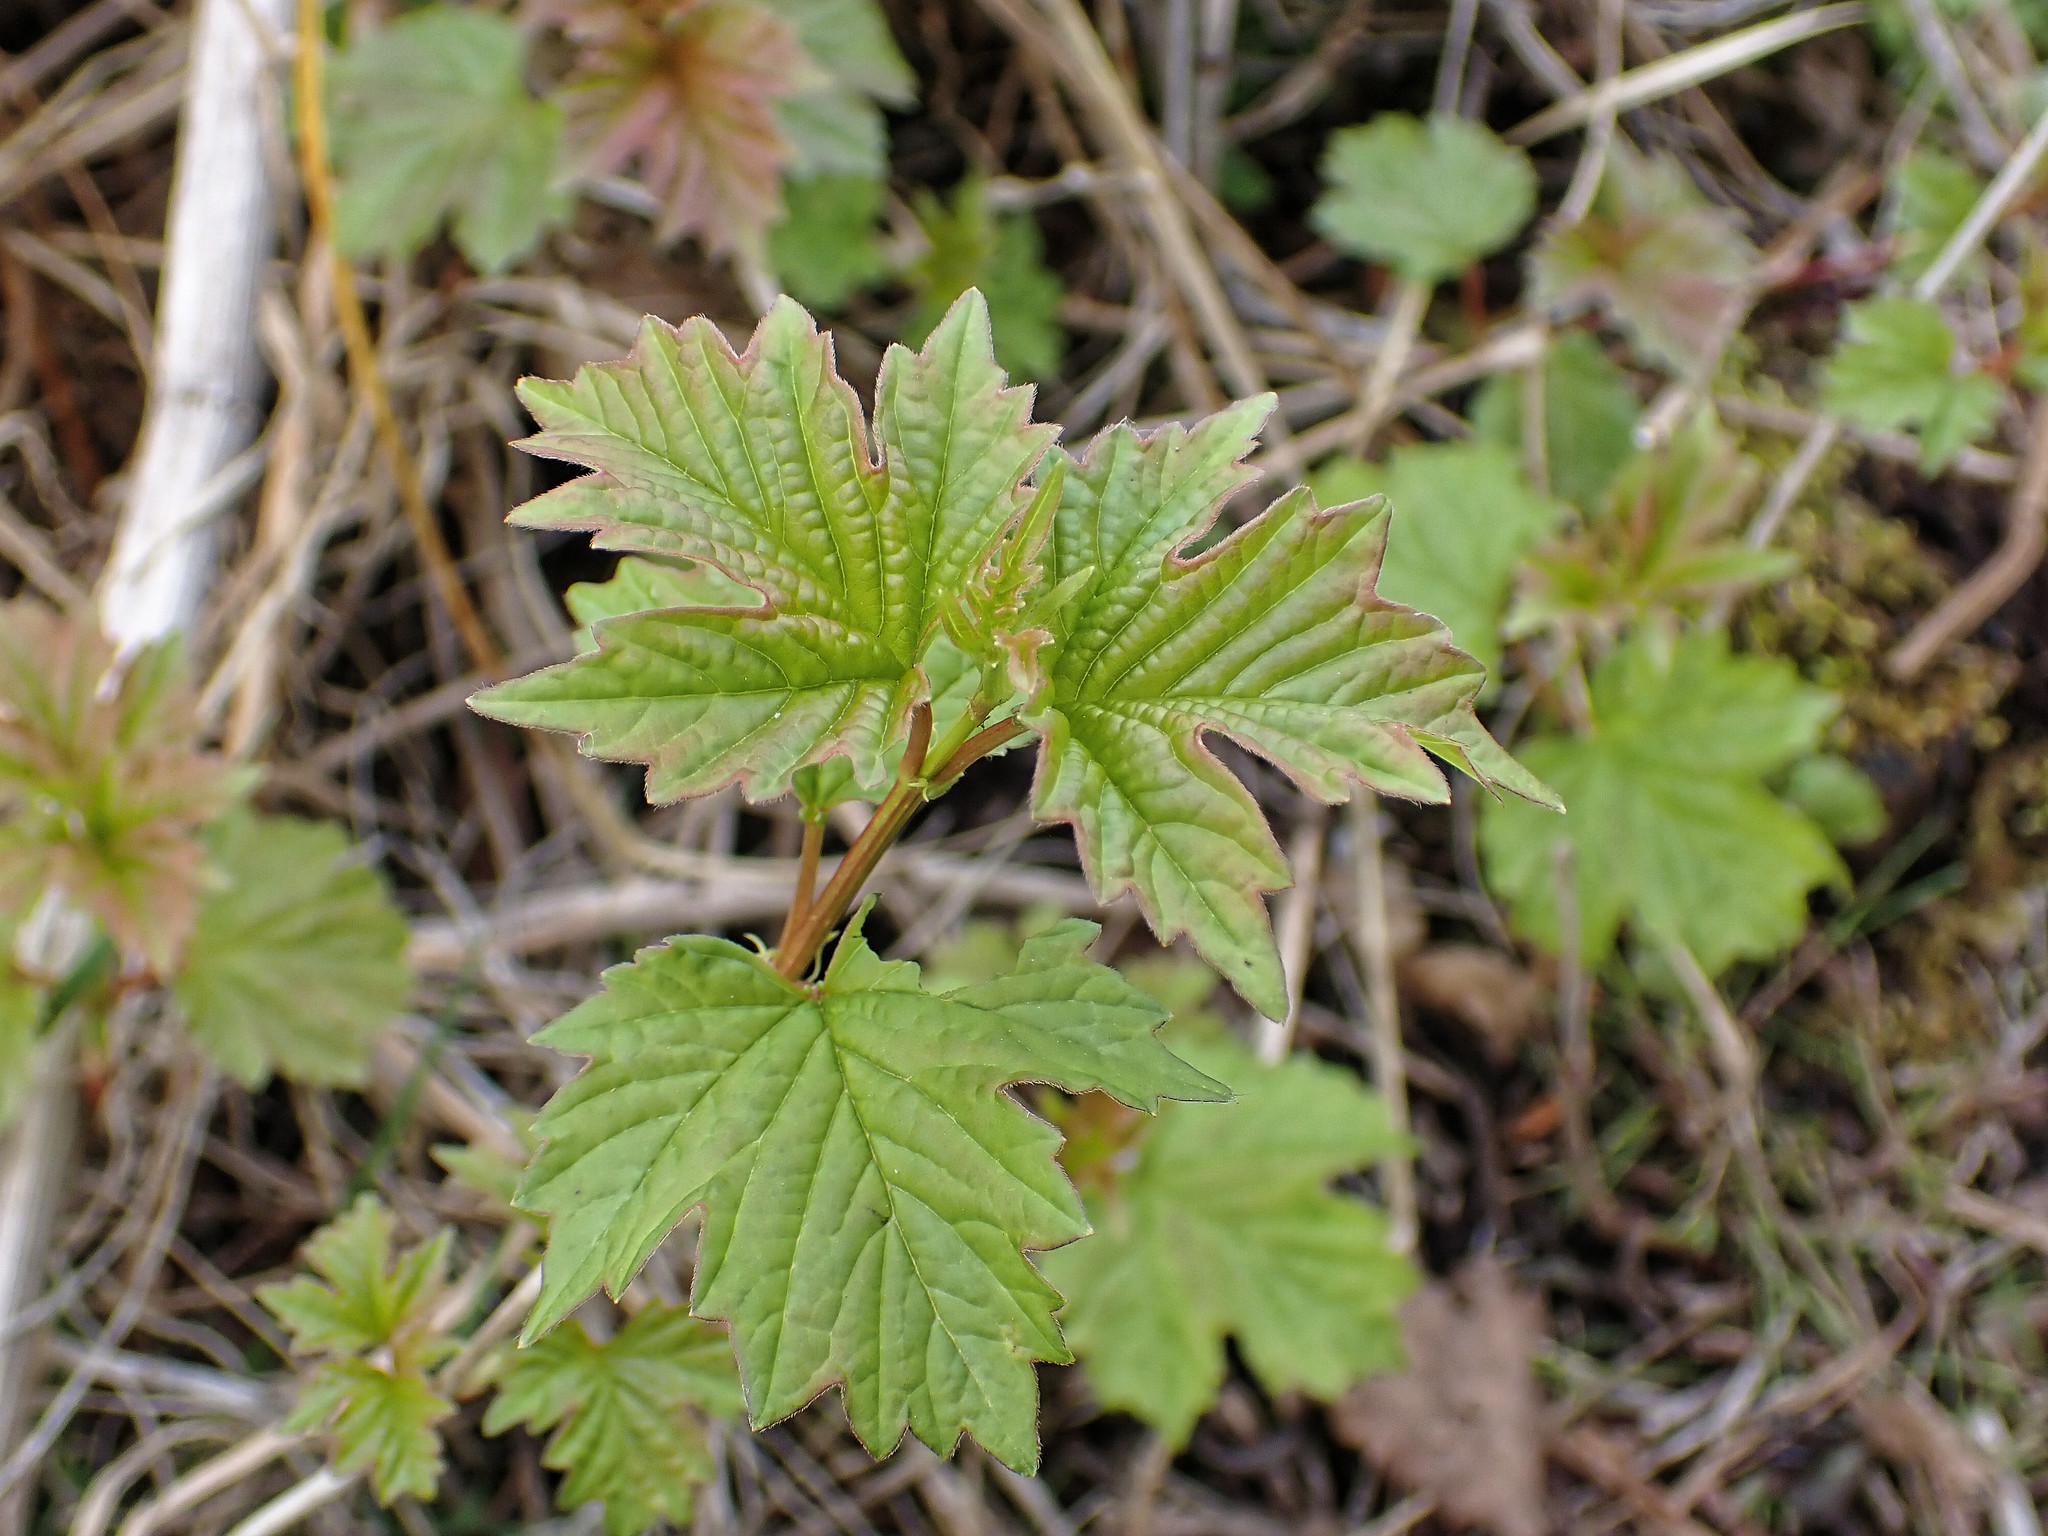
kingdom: Plantae
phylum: Tracheophyta
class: Magnoliopsida
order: Dipsacales
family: Viburnaceae
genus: Viburnum
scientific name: Viburnum opulus
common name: Guelder-rose
